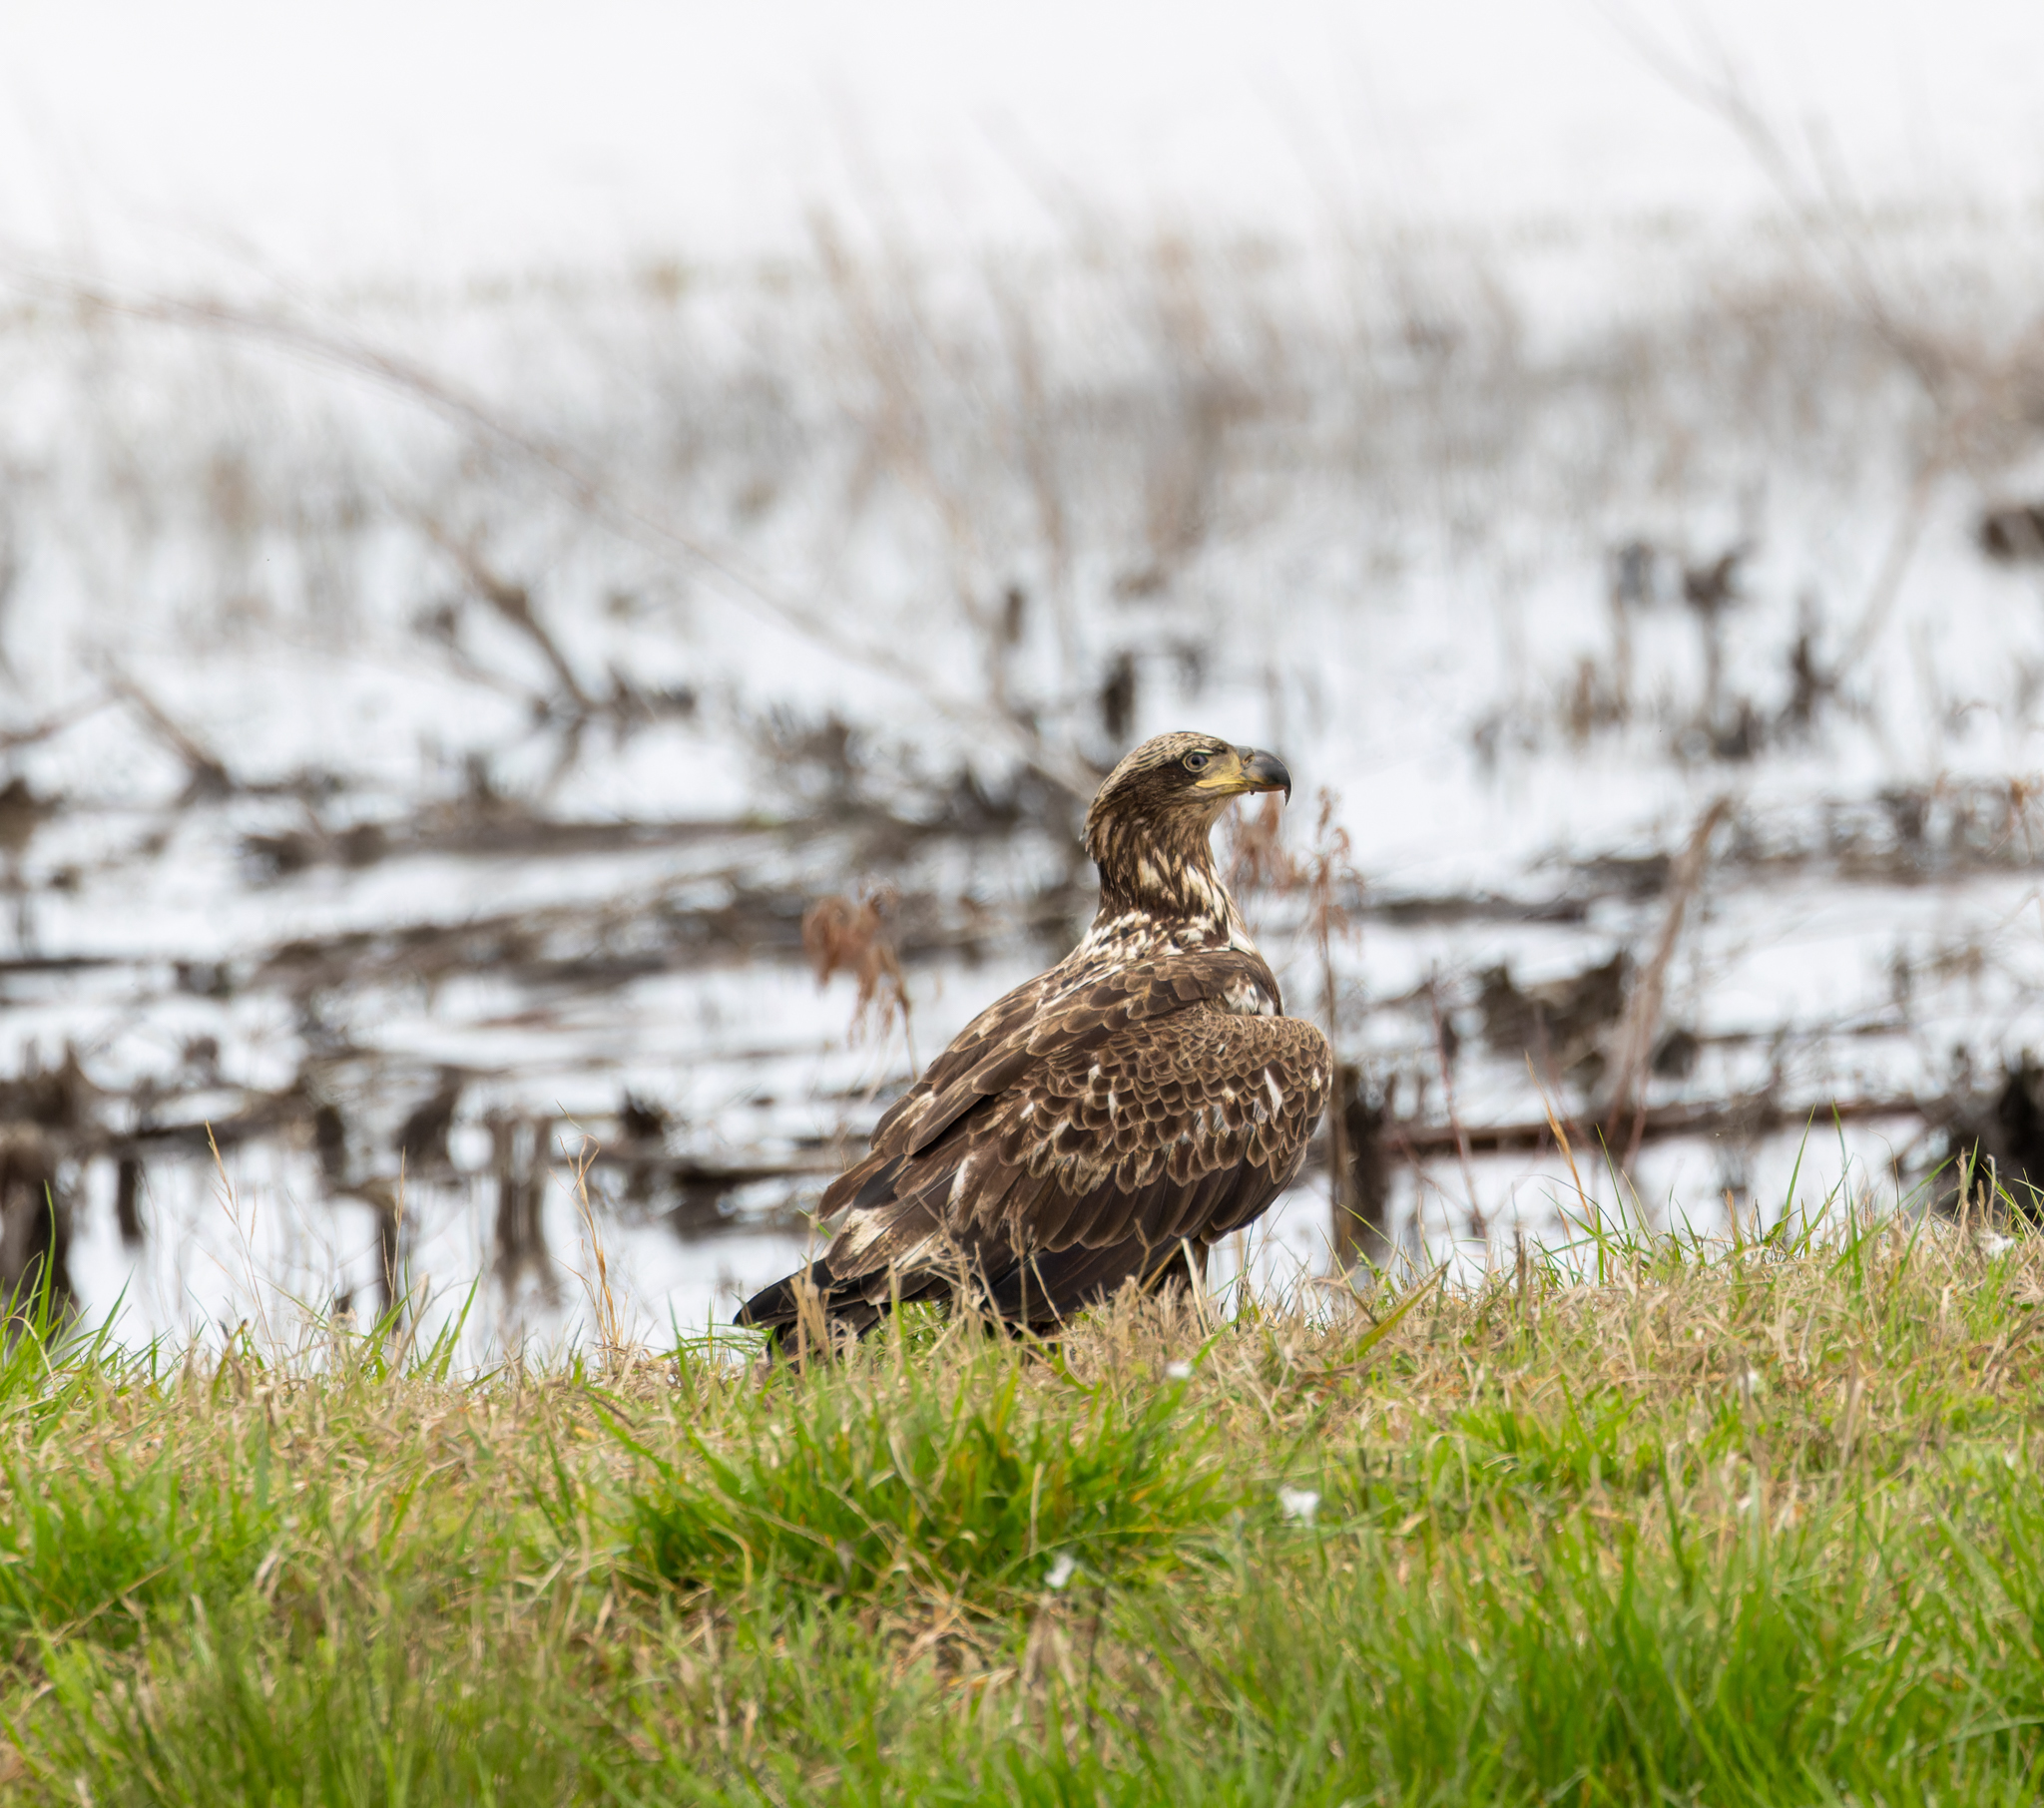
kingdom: Animalia
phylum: Chordata
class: Aves
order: Accipitriformes
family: Accipitridae
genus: Haliaeetus
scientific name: Haliaeetus leucocephalus
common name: Bald eagle
